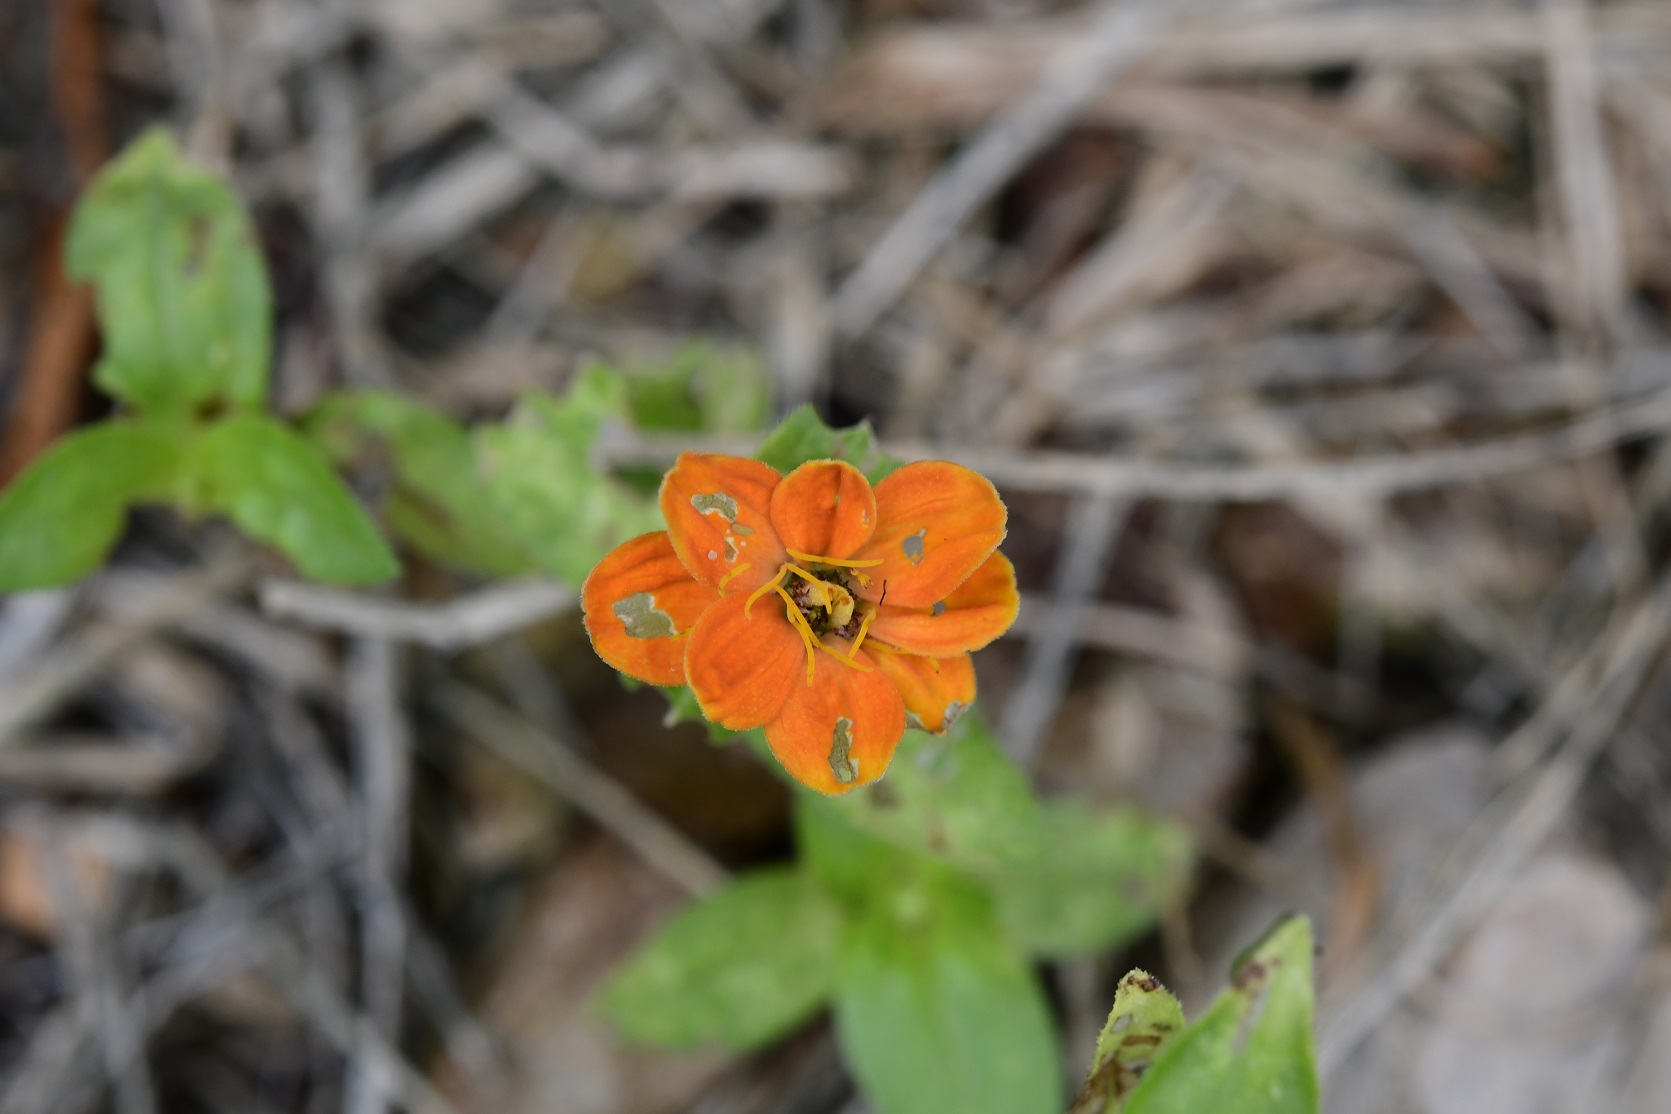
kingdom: Plantae
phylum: Tracheophyta
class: Magnoliopsida
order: Asterales
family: Asteraceae
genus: Zinnia
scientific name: Zinnia elegans
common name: Youth-and-age
